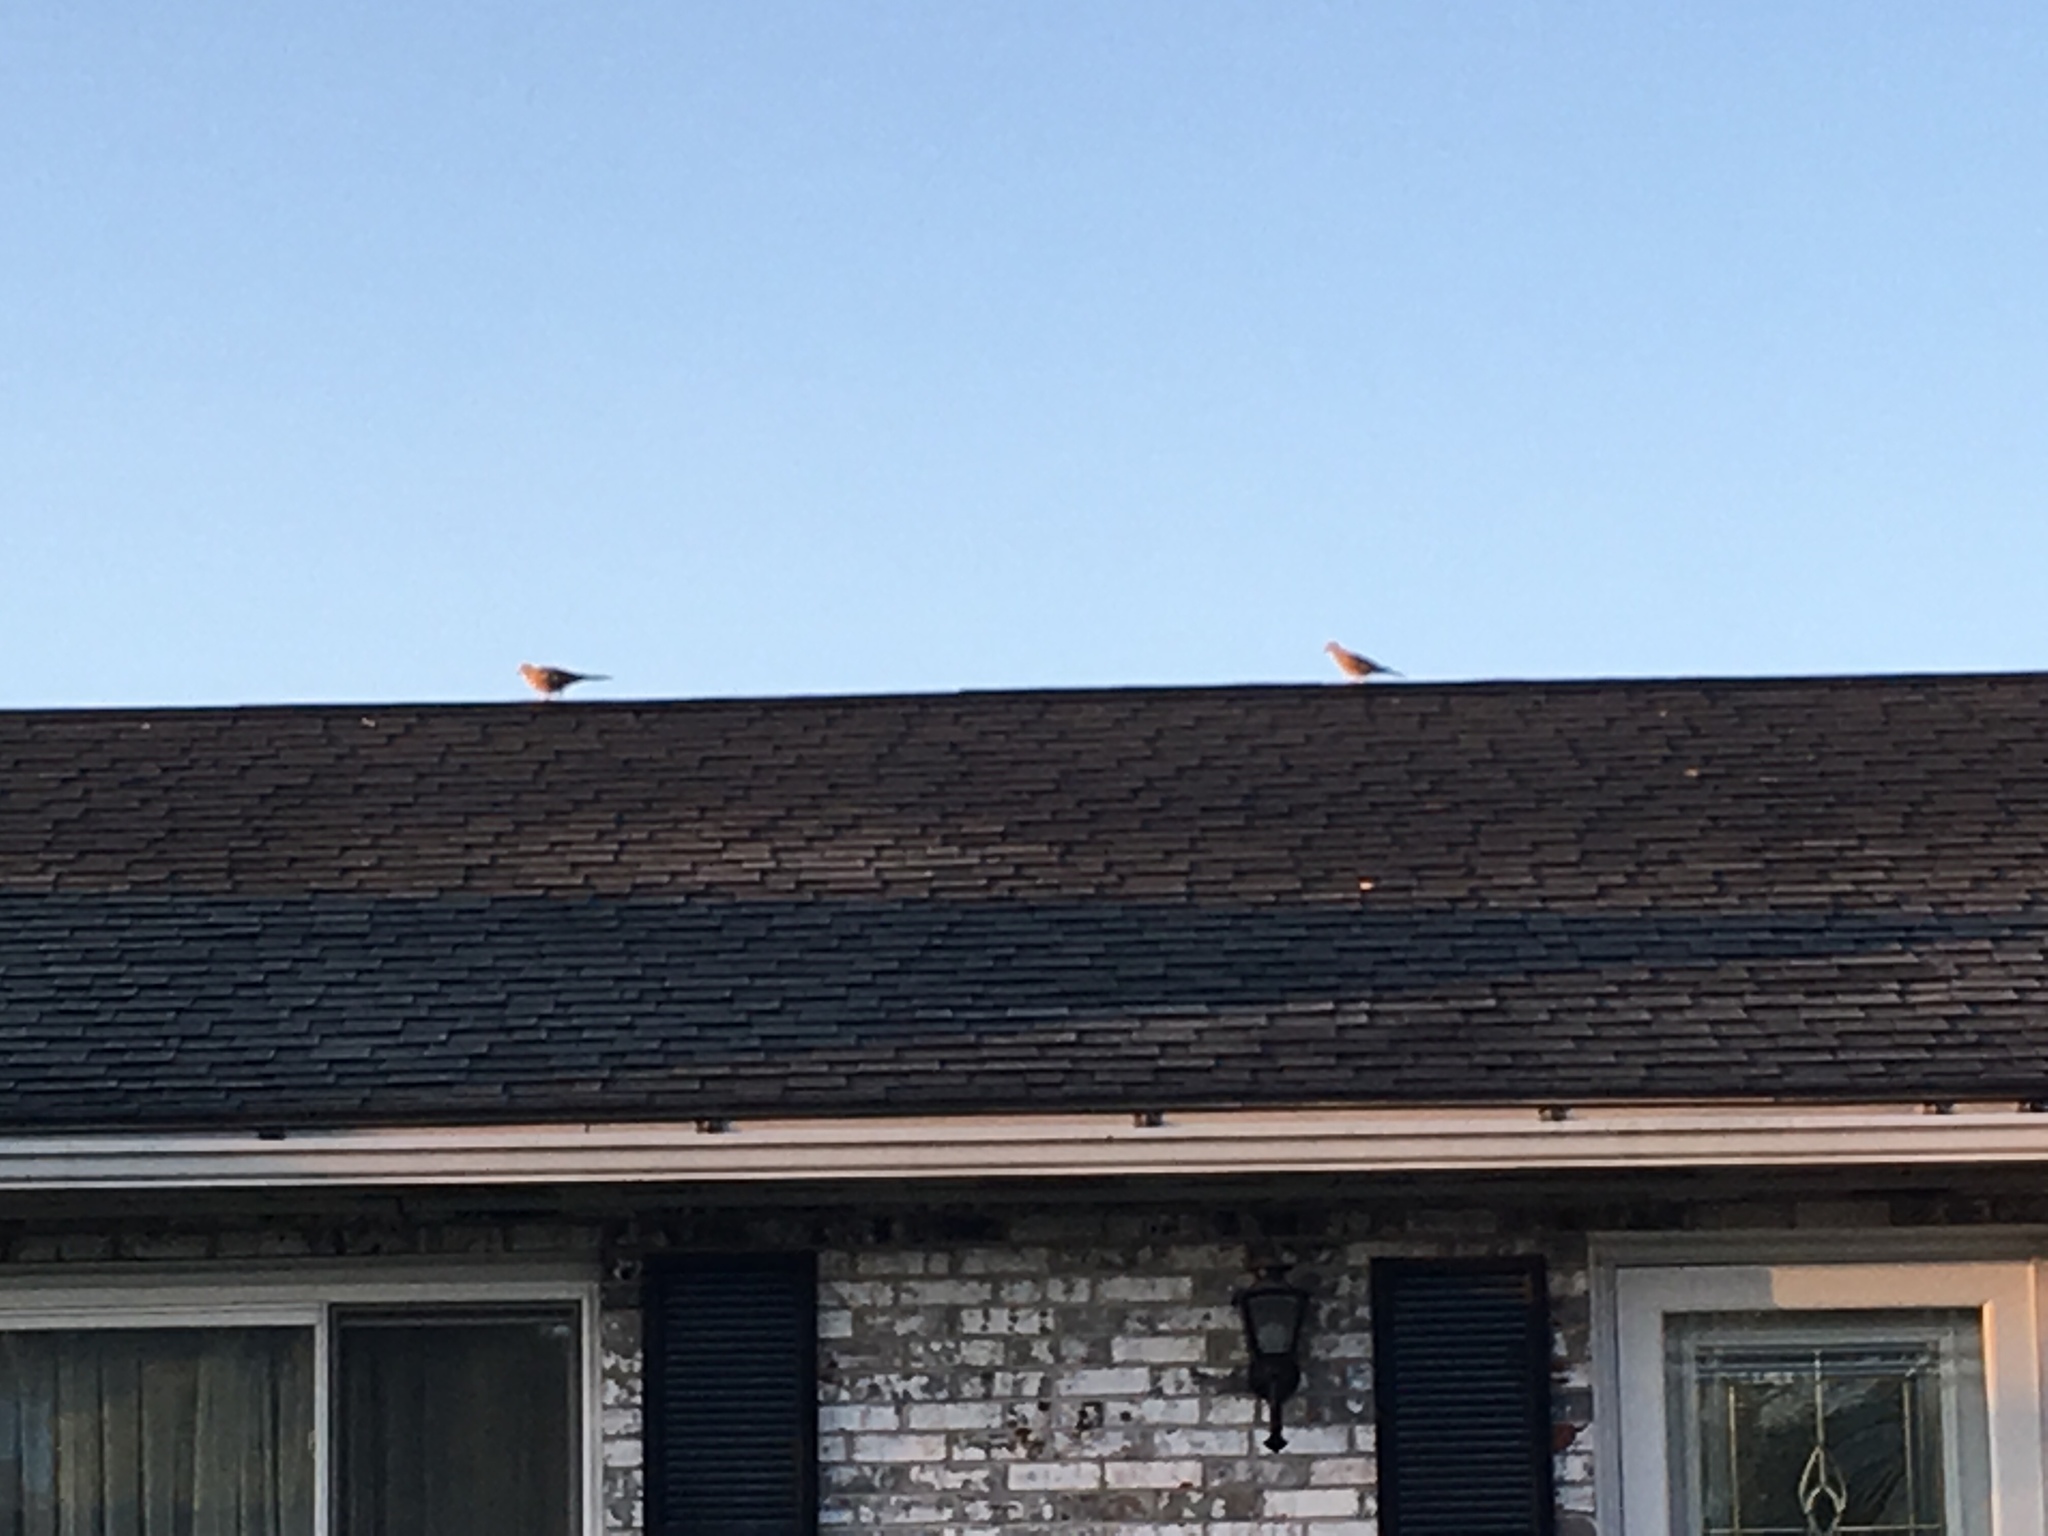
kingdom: Animalia
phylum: Chordata
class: Aves
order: Columbiformes
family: Columbidae
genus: Zenaida
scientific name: Zenaida macroura
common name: Mourning dove
